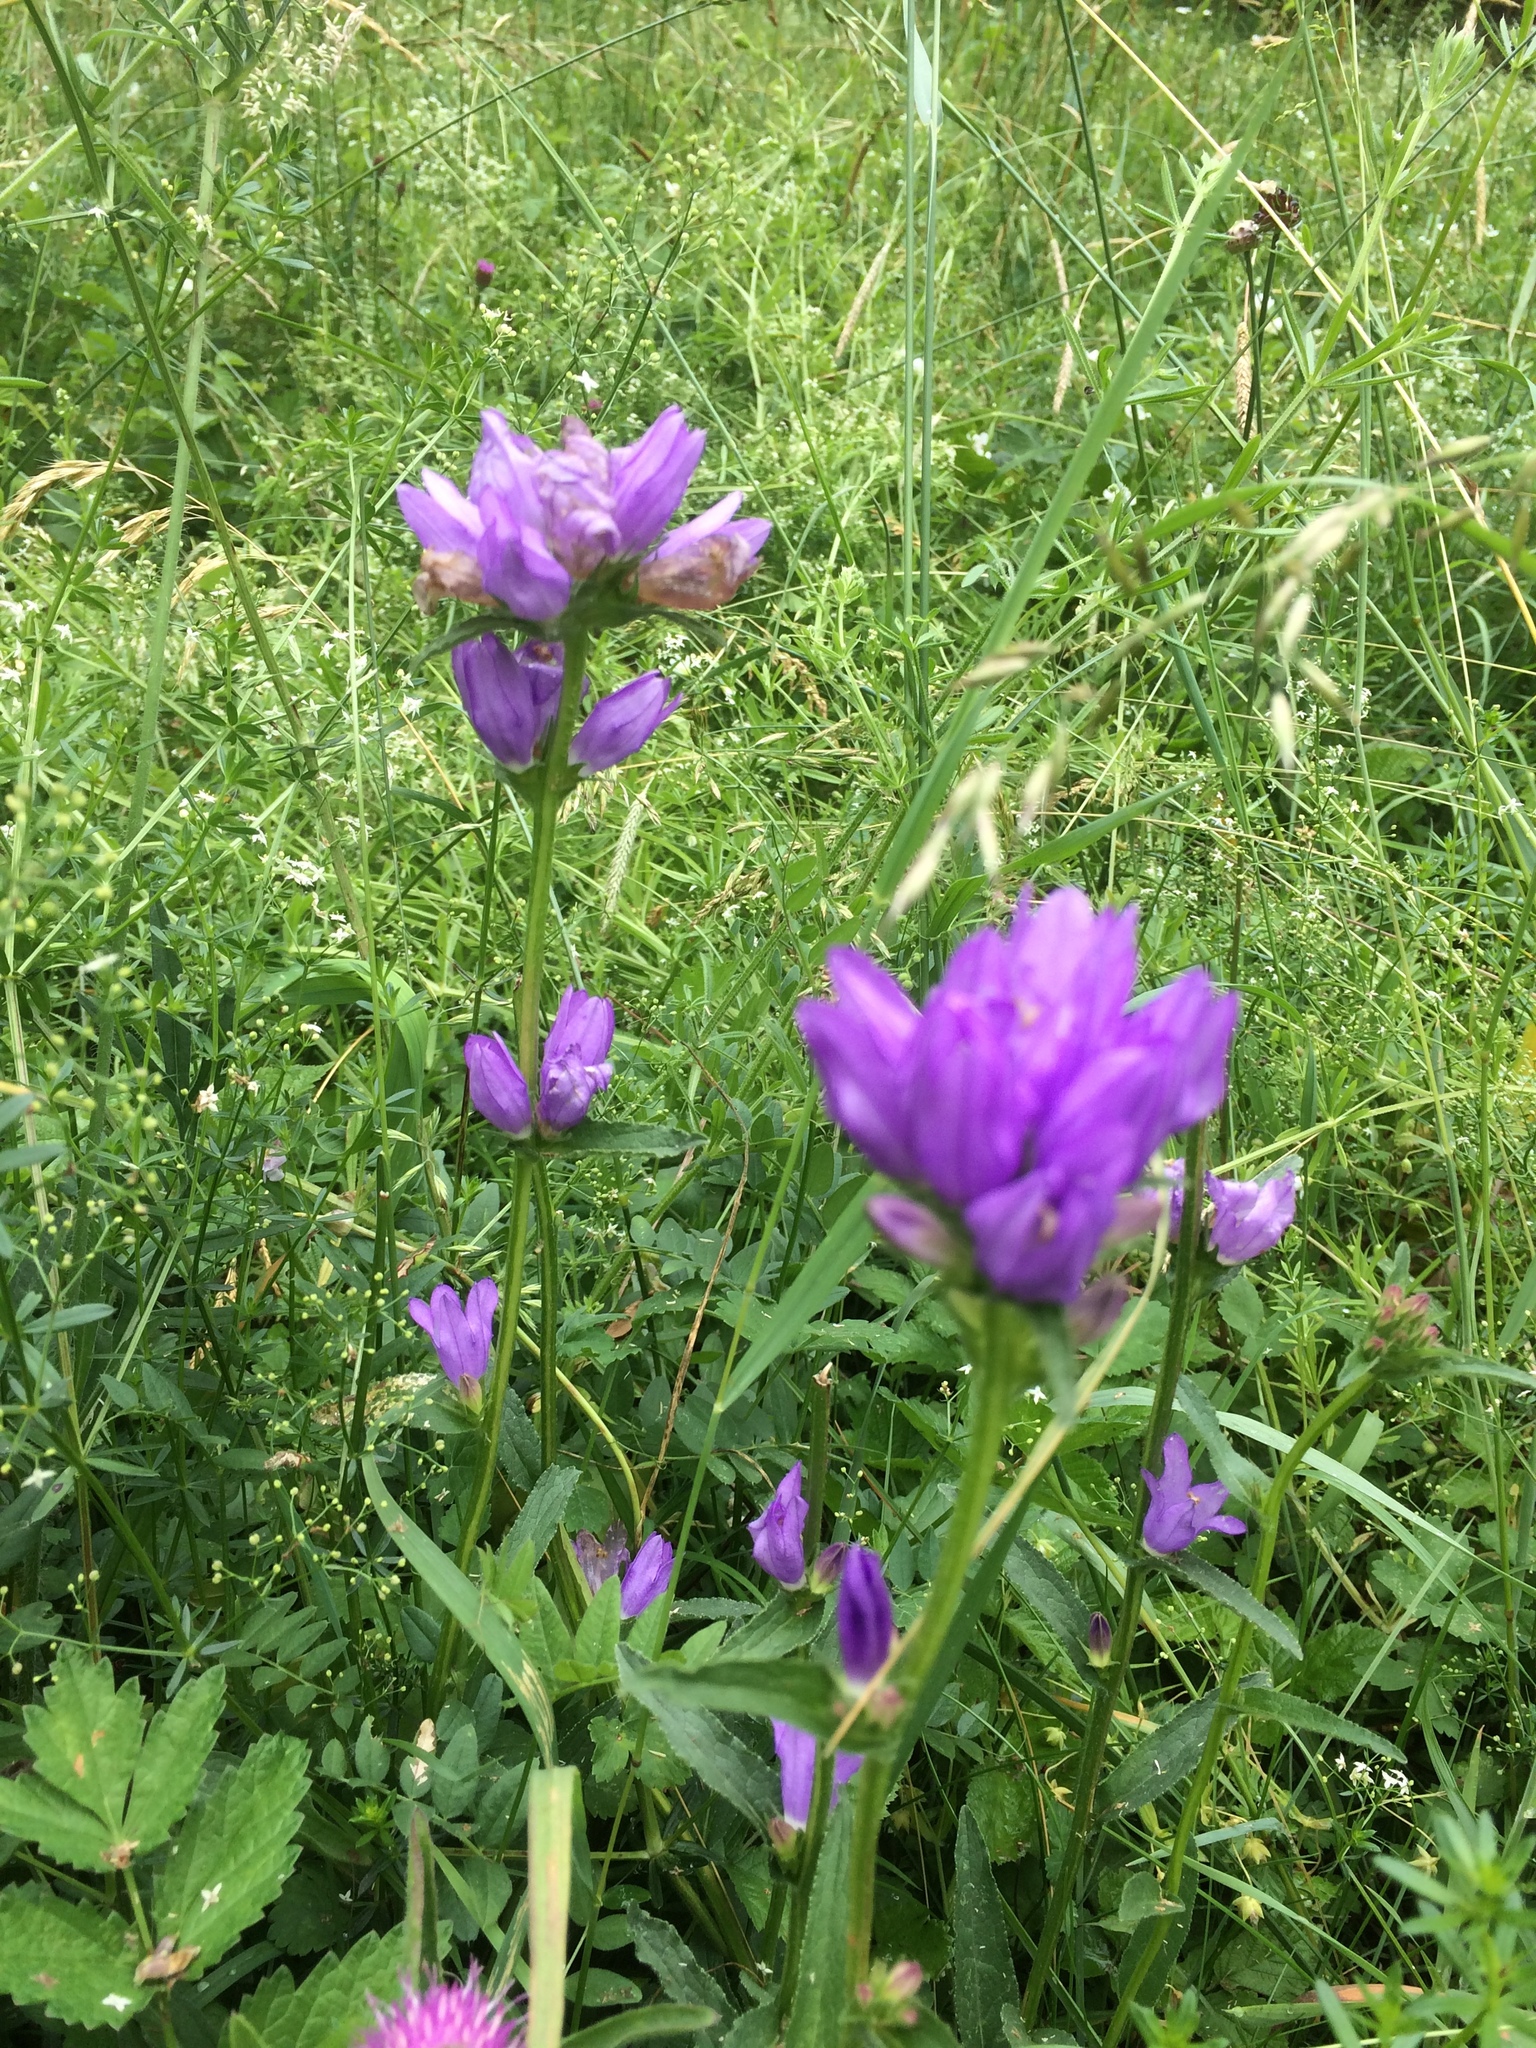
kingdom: Plantae
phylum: Tracheophyta
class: Magnoliopsida
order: Asterales
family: Campanulaceae
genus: Campanula
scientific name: Campanula glomerata
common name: Clustered bellflower
